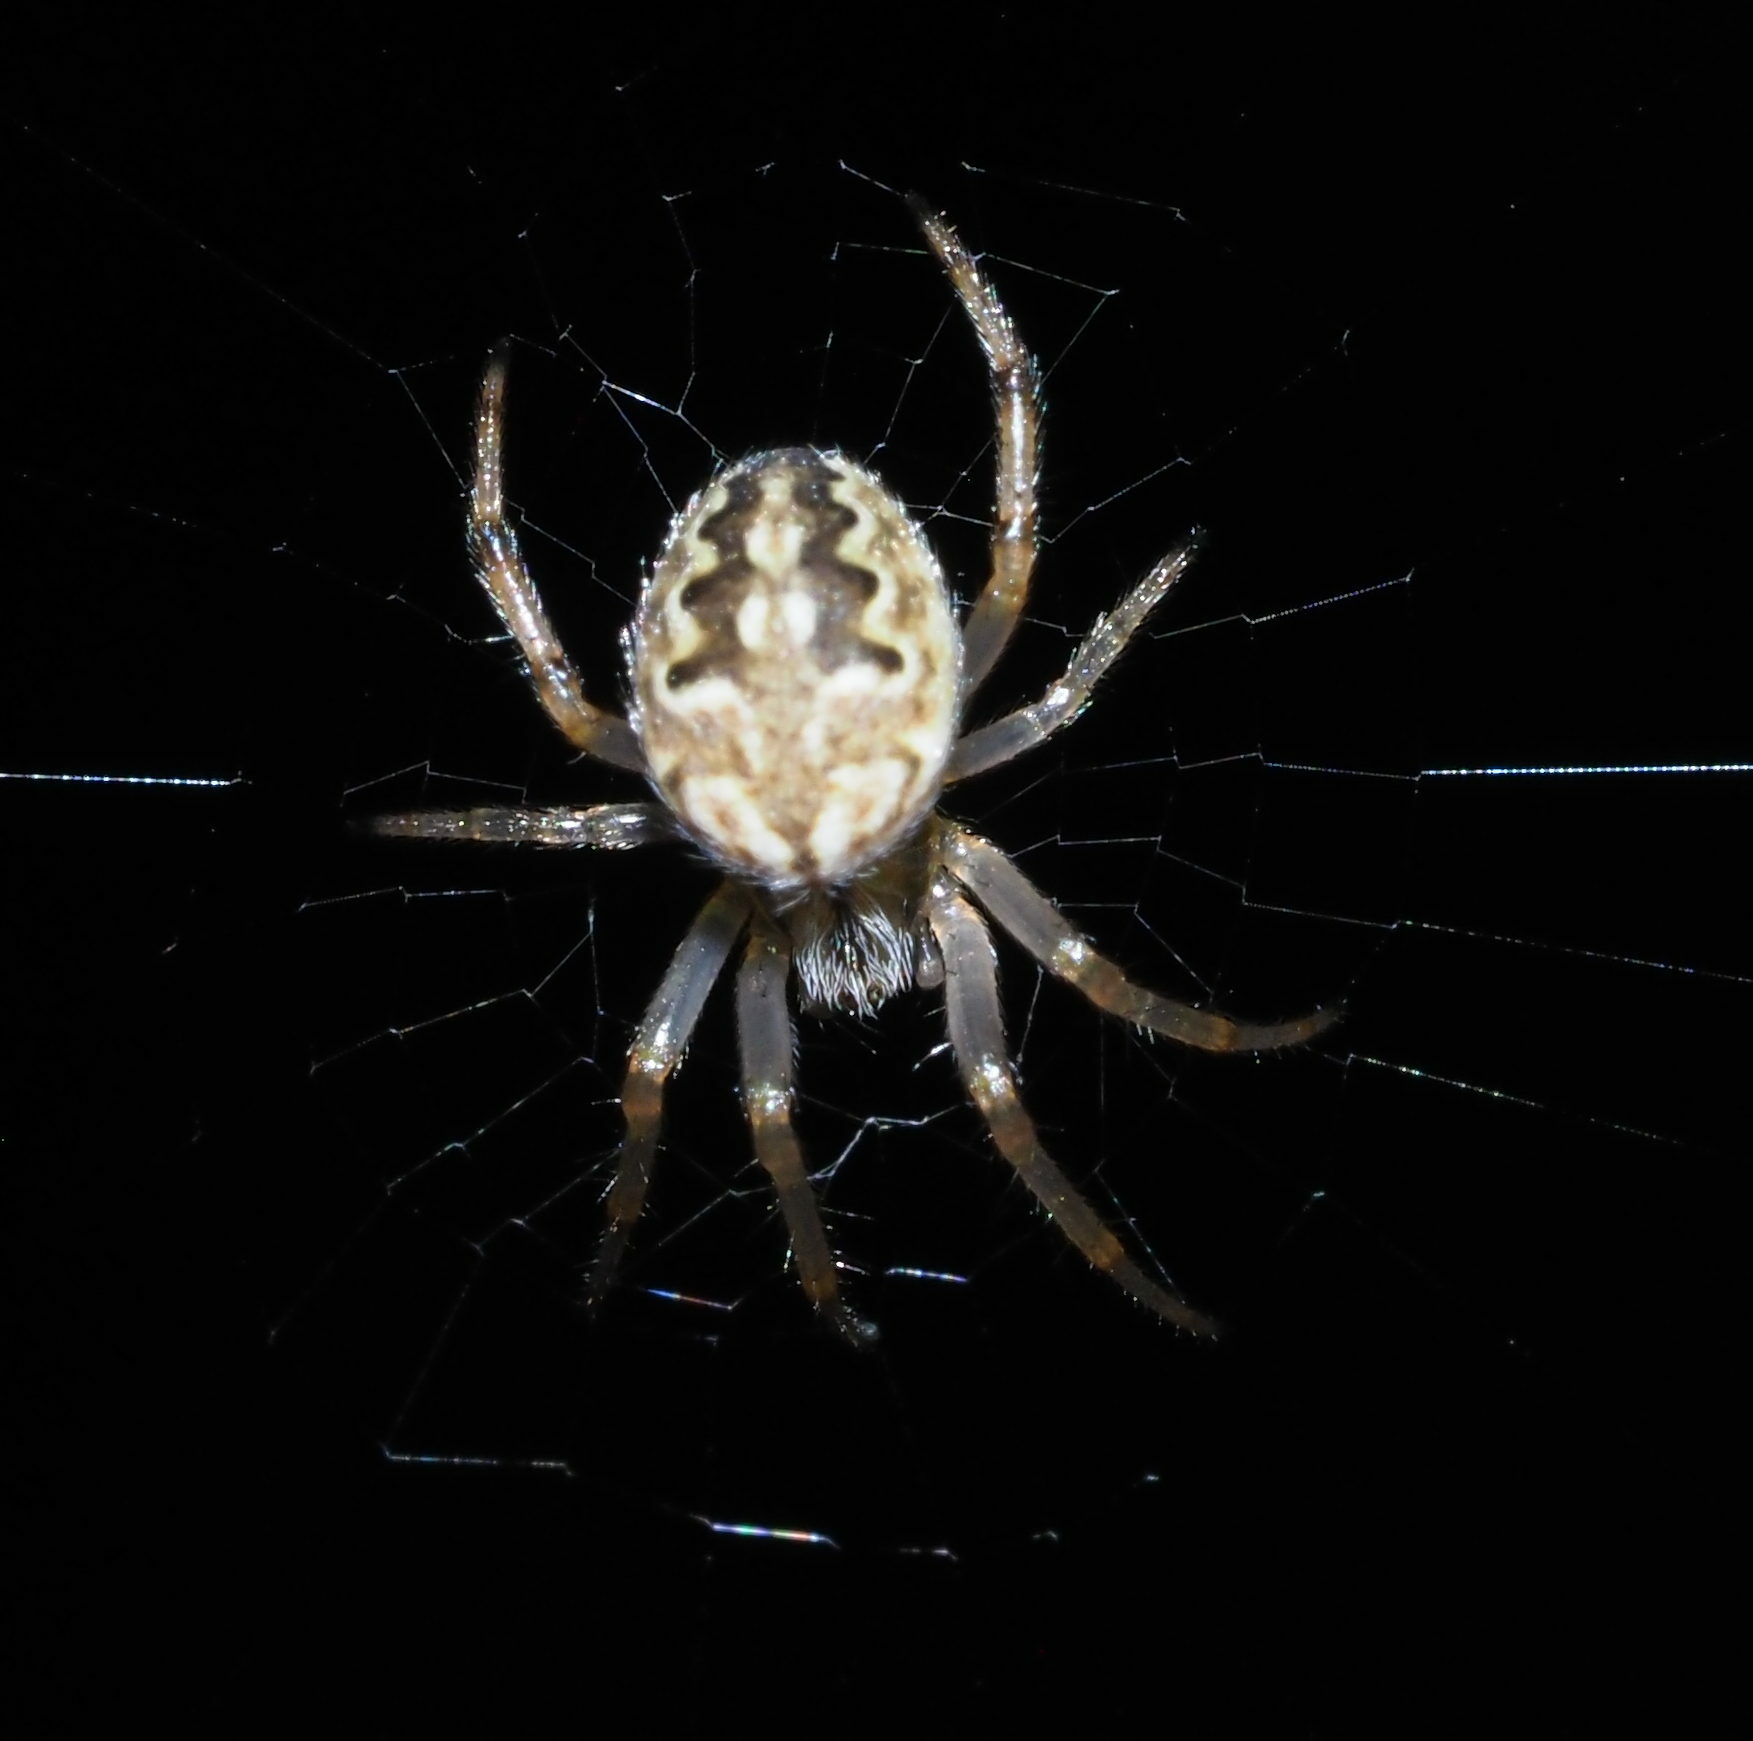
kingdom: Animalia
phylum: Arthropoda
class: Arachnida
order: Araneae
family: Araneidae
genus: Neoscona
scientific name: Neoscona theisi
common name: Spider
